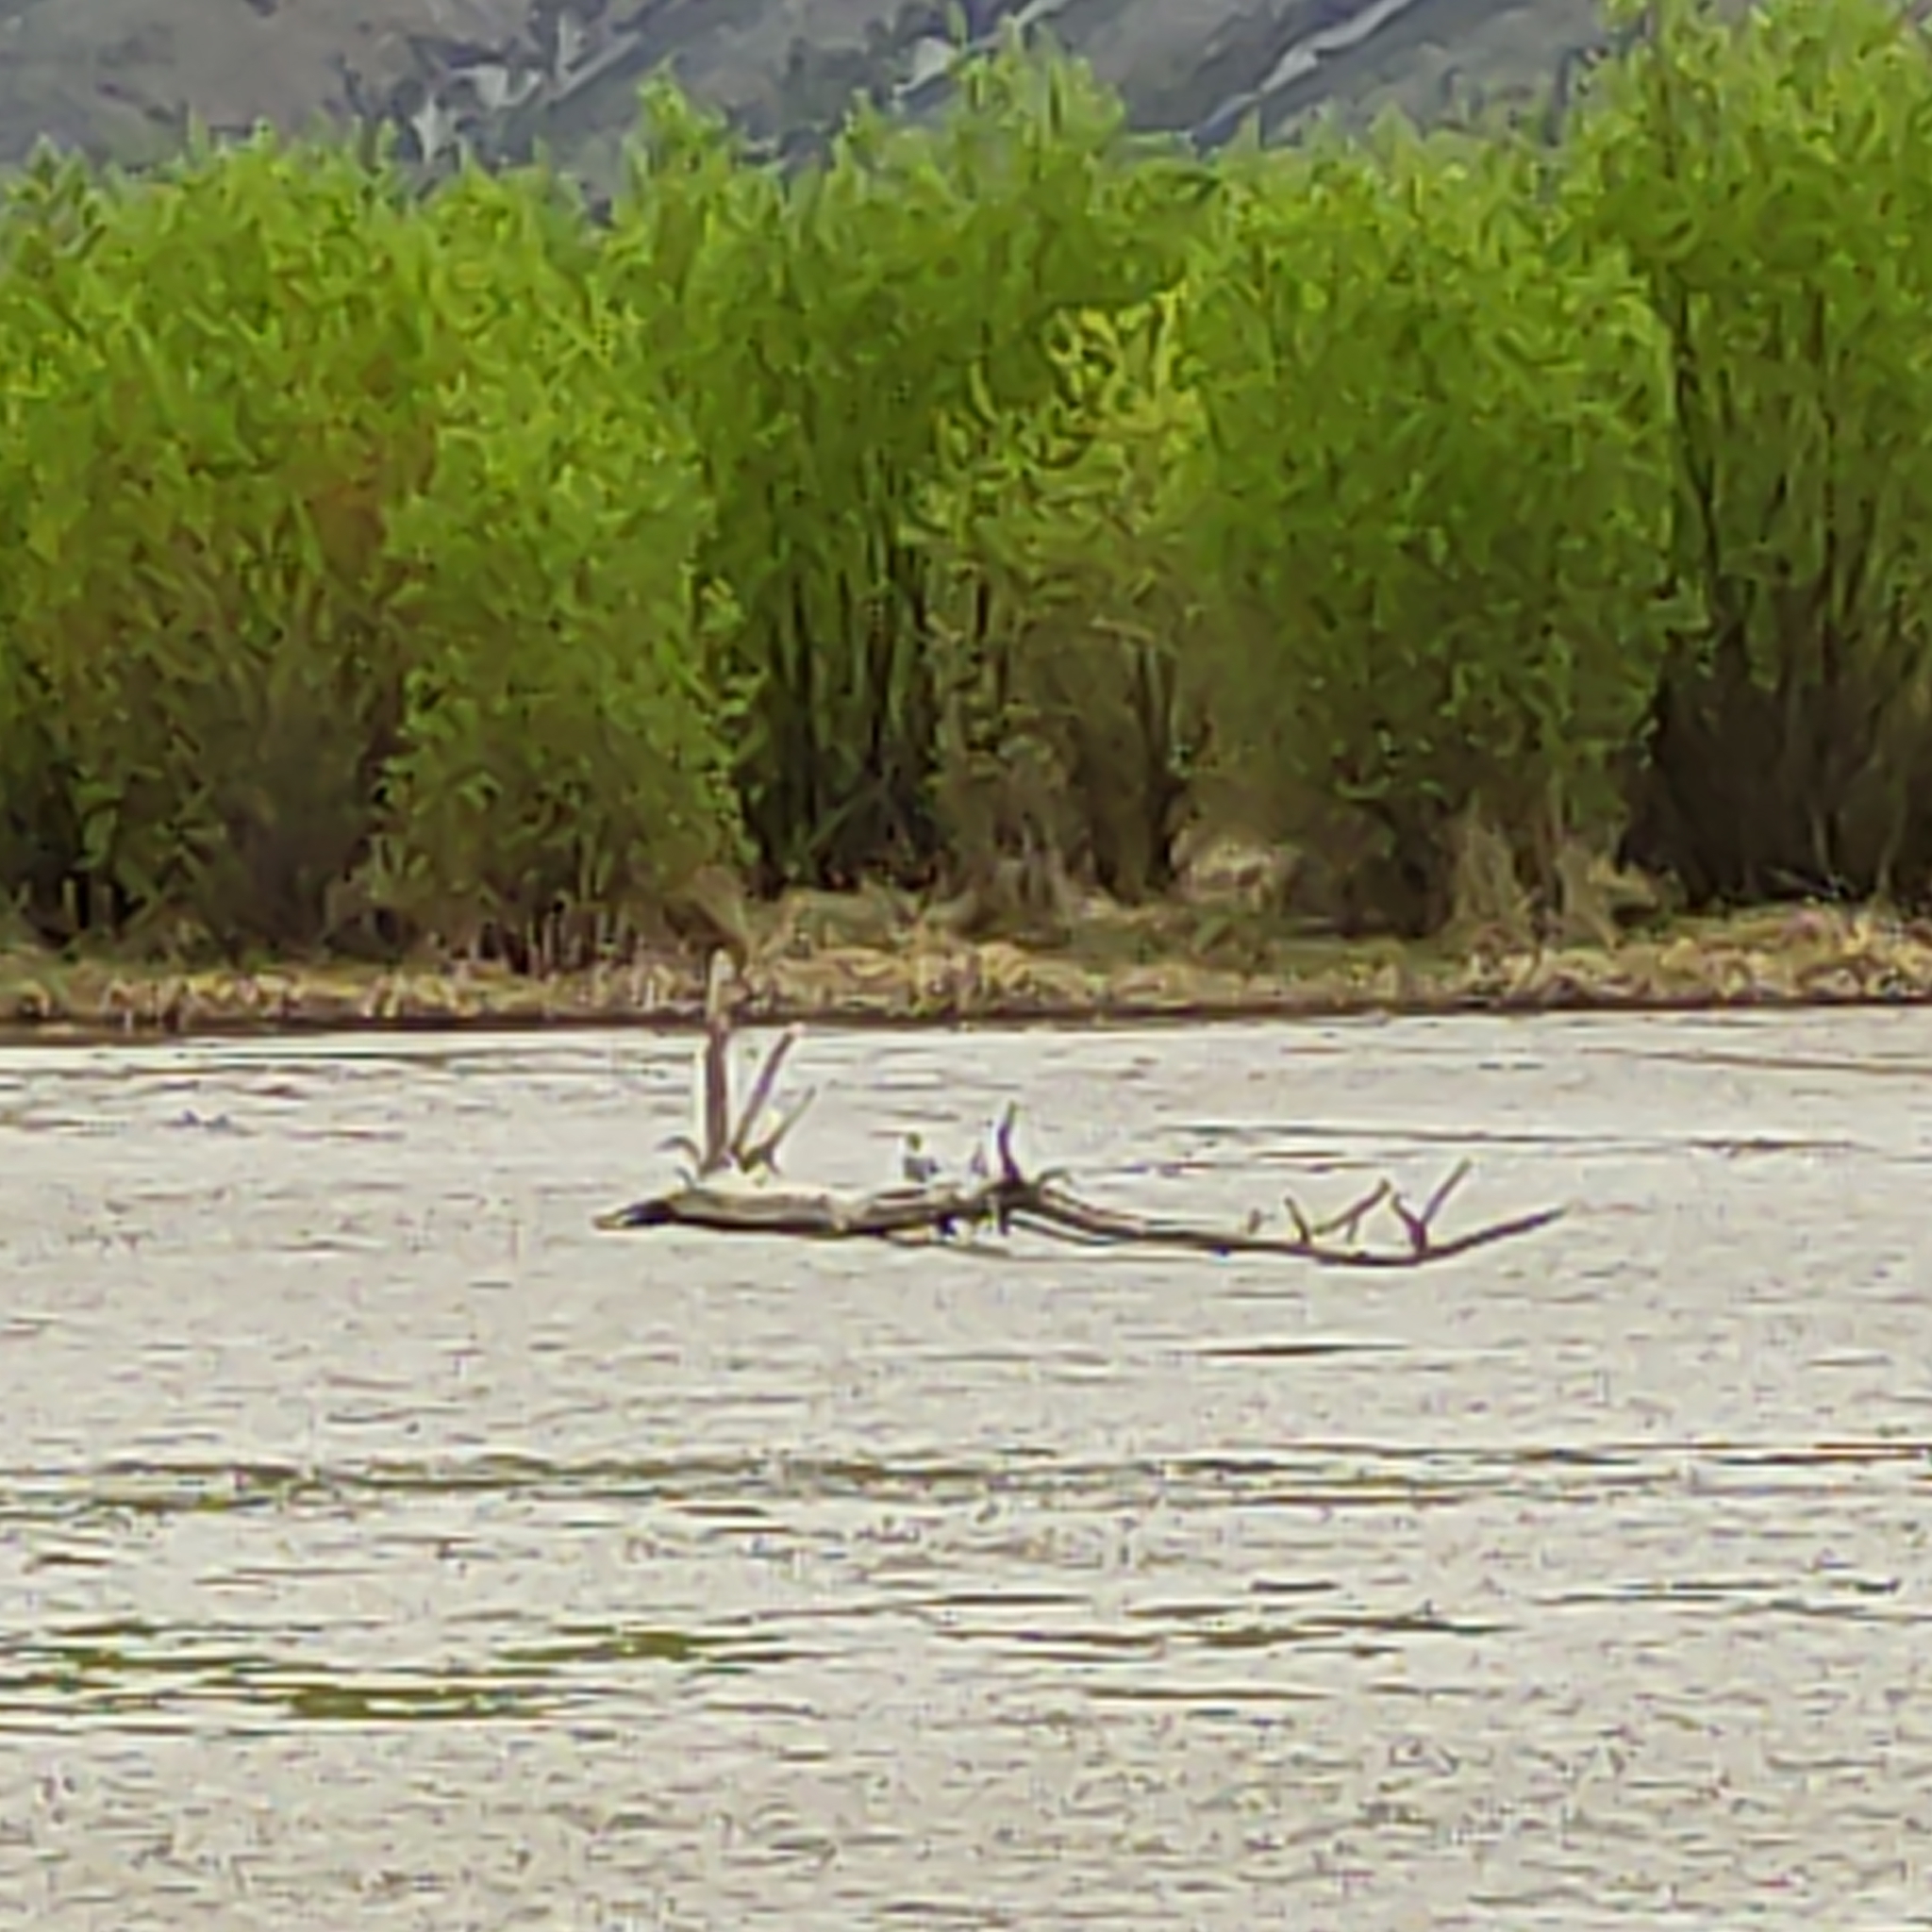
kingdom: Animalia
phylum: Chordata
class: Aves
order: Charadriiformes
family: Laridae
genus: Chlidonias
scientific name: Chlidonias albostriatus
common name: Black-fronted tern
